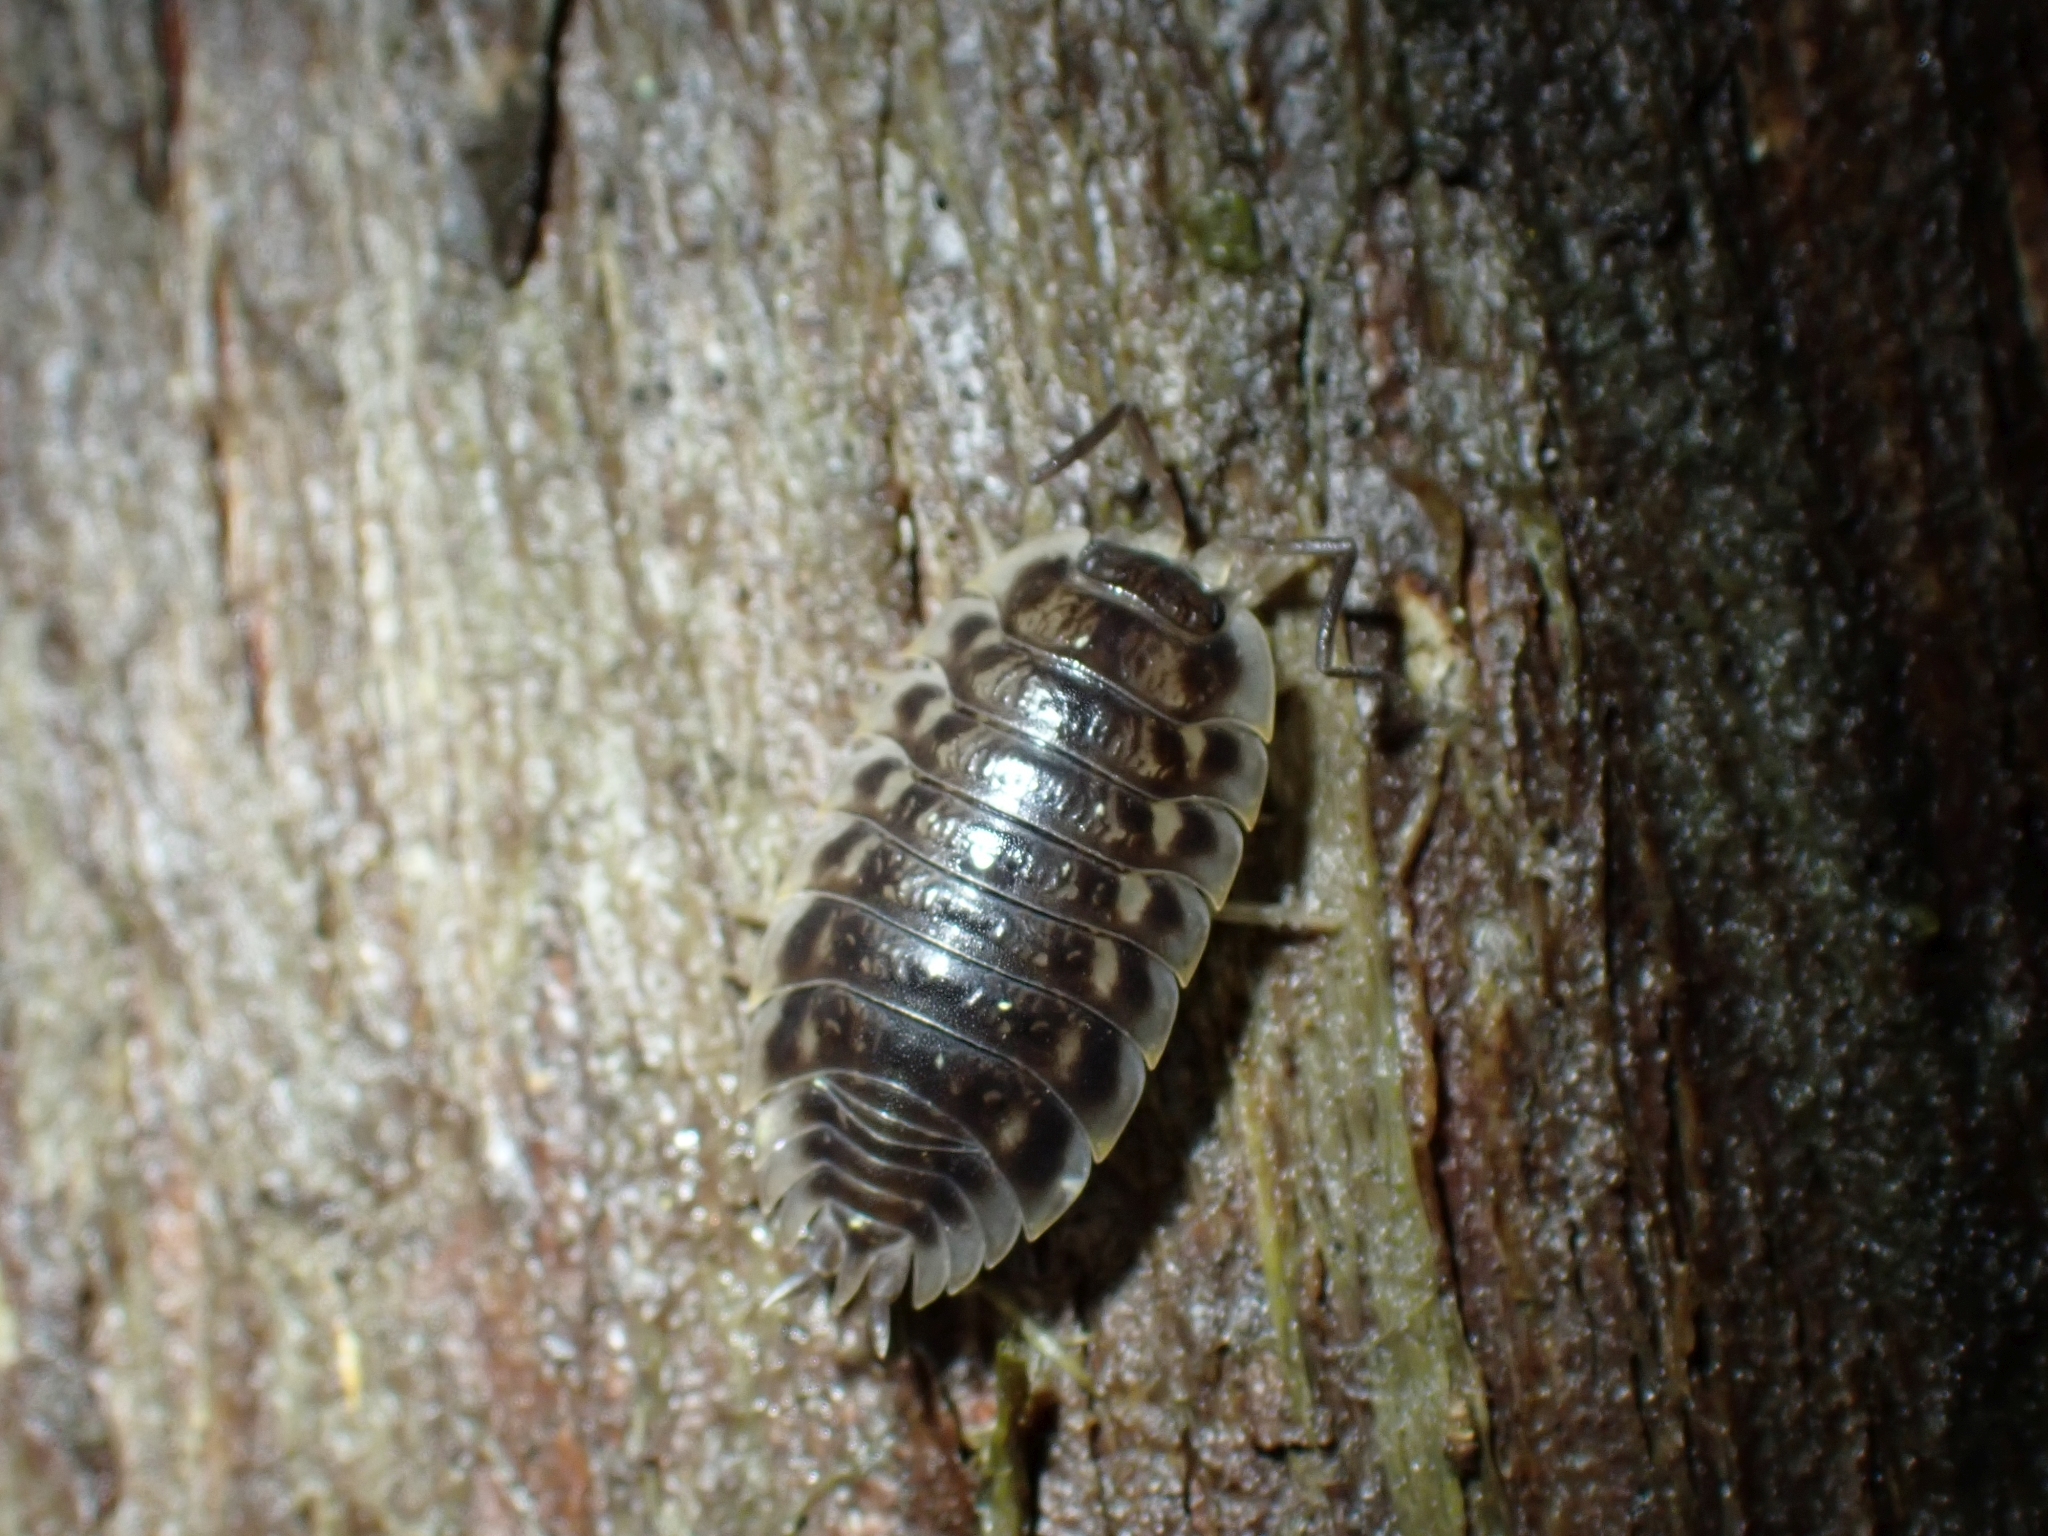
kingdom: Animalia
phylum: Arthropoda
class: Malacostraca
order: Isopoda
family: Oniscidae
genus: Oniscus
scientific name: Oniscus asellus
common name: Common shiny woodlouse
